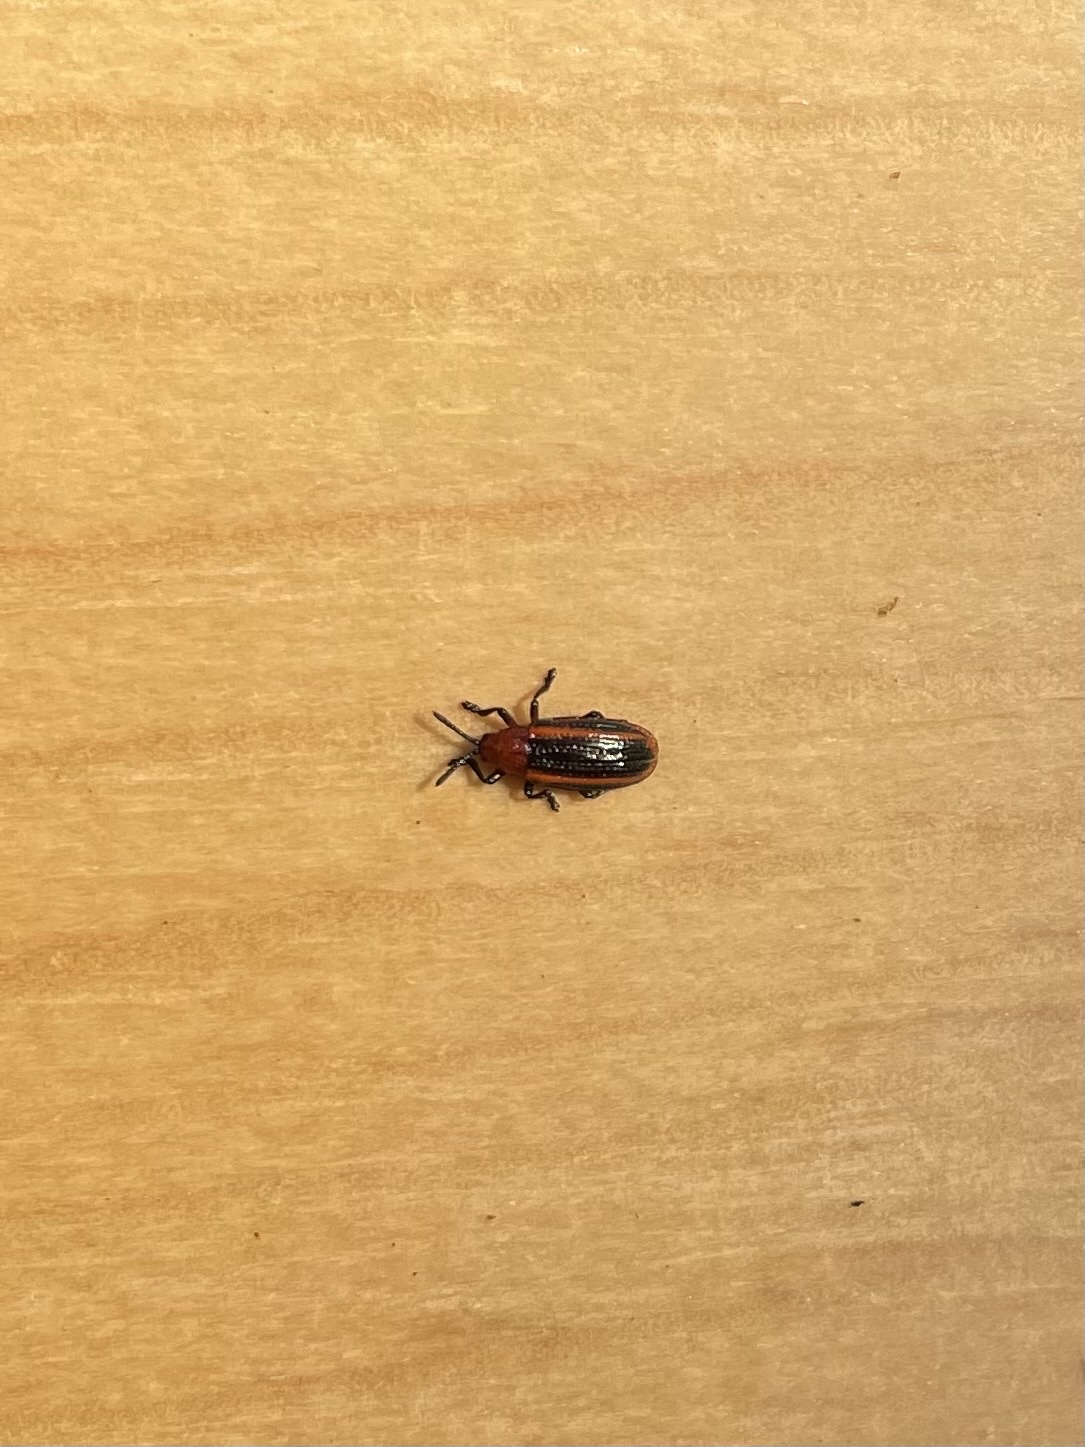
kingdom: Animalia
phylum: Arthropoda
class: Insecta
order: Coleoptera
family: Chrysomelidae
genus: Microrhopala
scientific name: Microrhopala vittata
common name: Goldenrod leaf miner beetle
